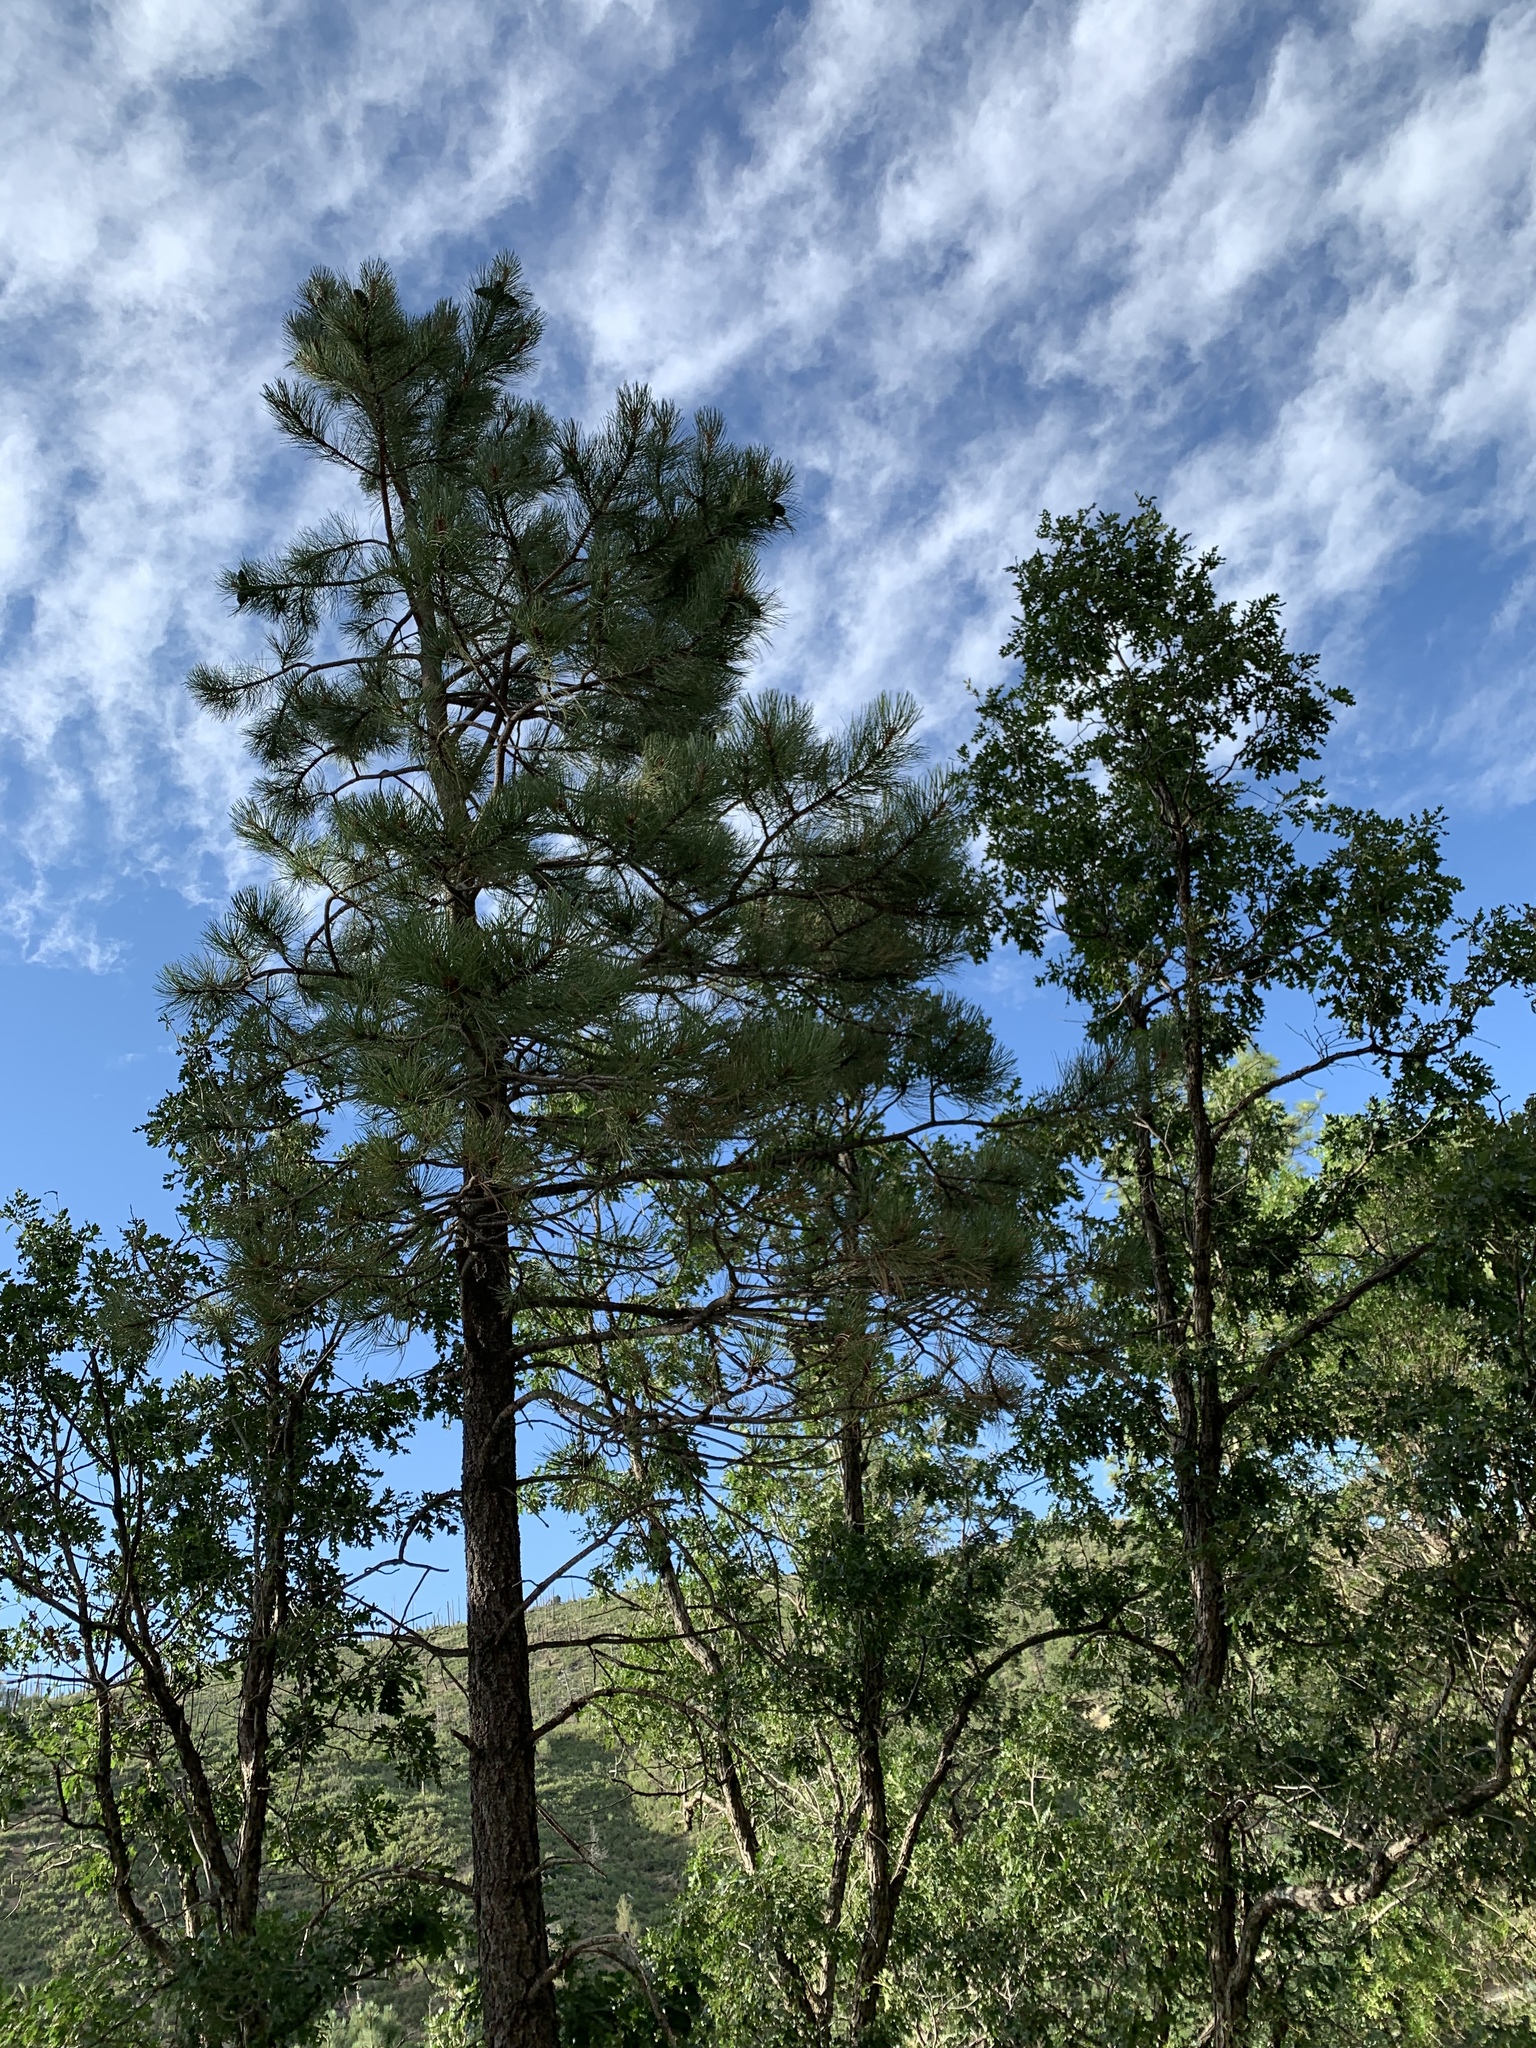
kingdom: Plantae
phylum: Tracheophyta
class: Pinopsida
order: Pinales
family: Pinaceae
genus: Pinus
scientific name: Pinus ponderosa
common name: Western yellow-pine
